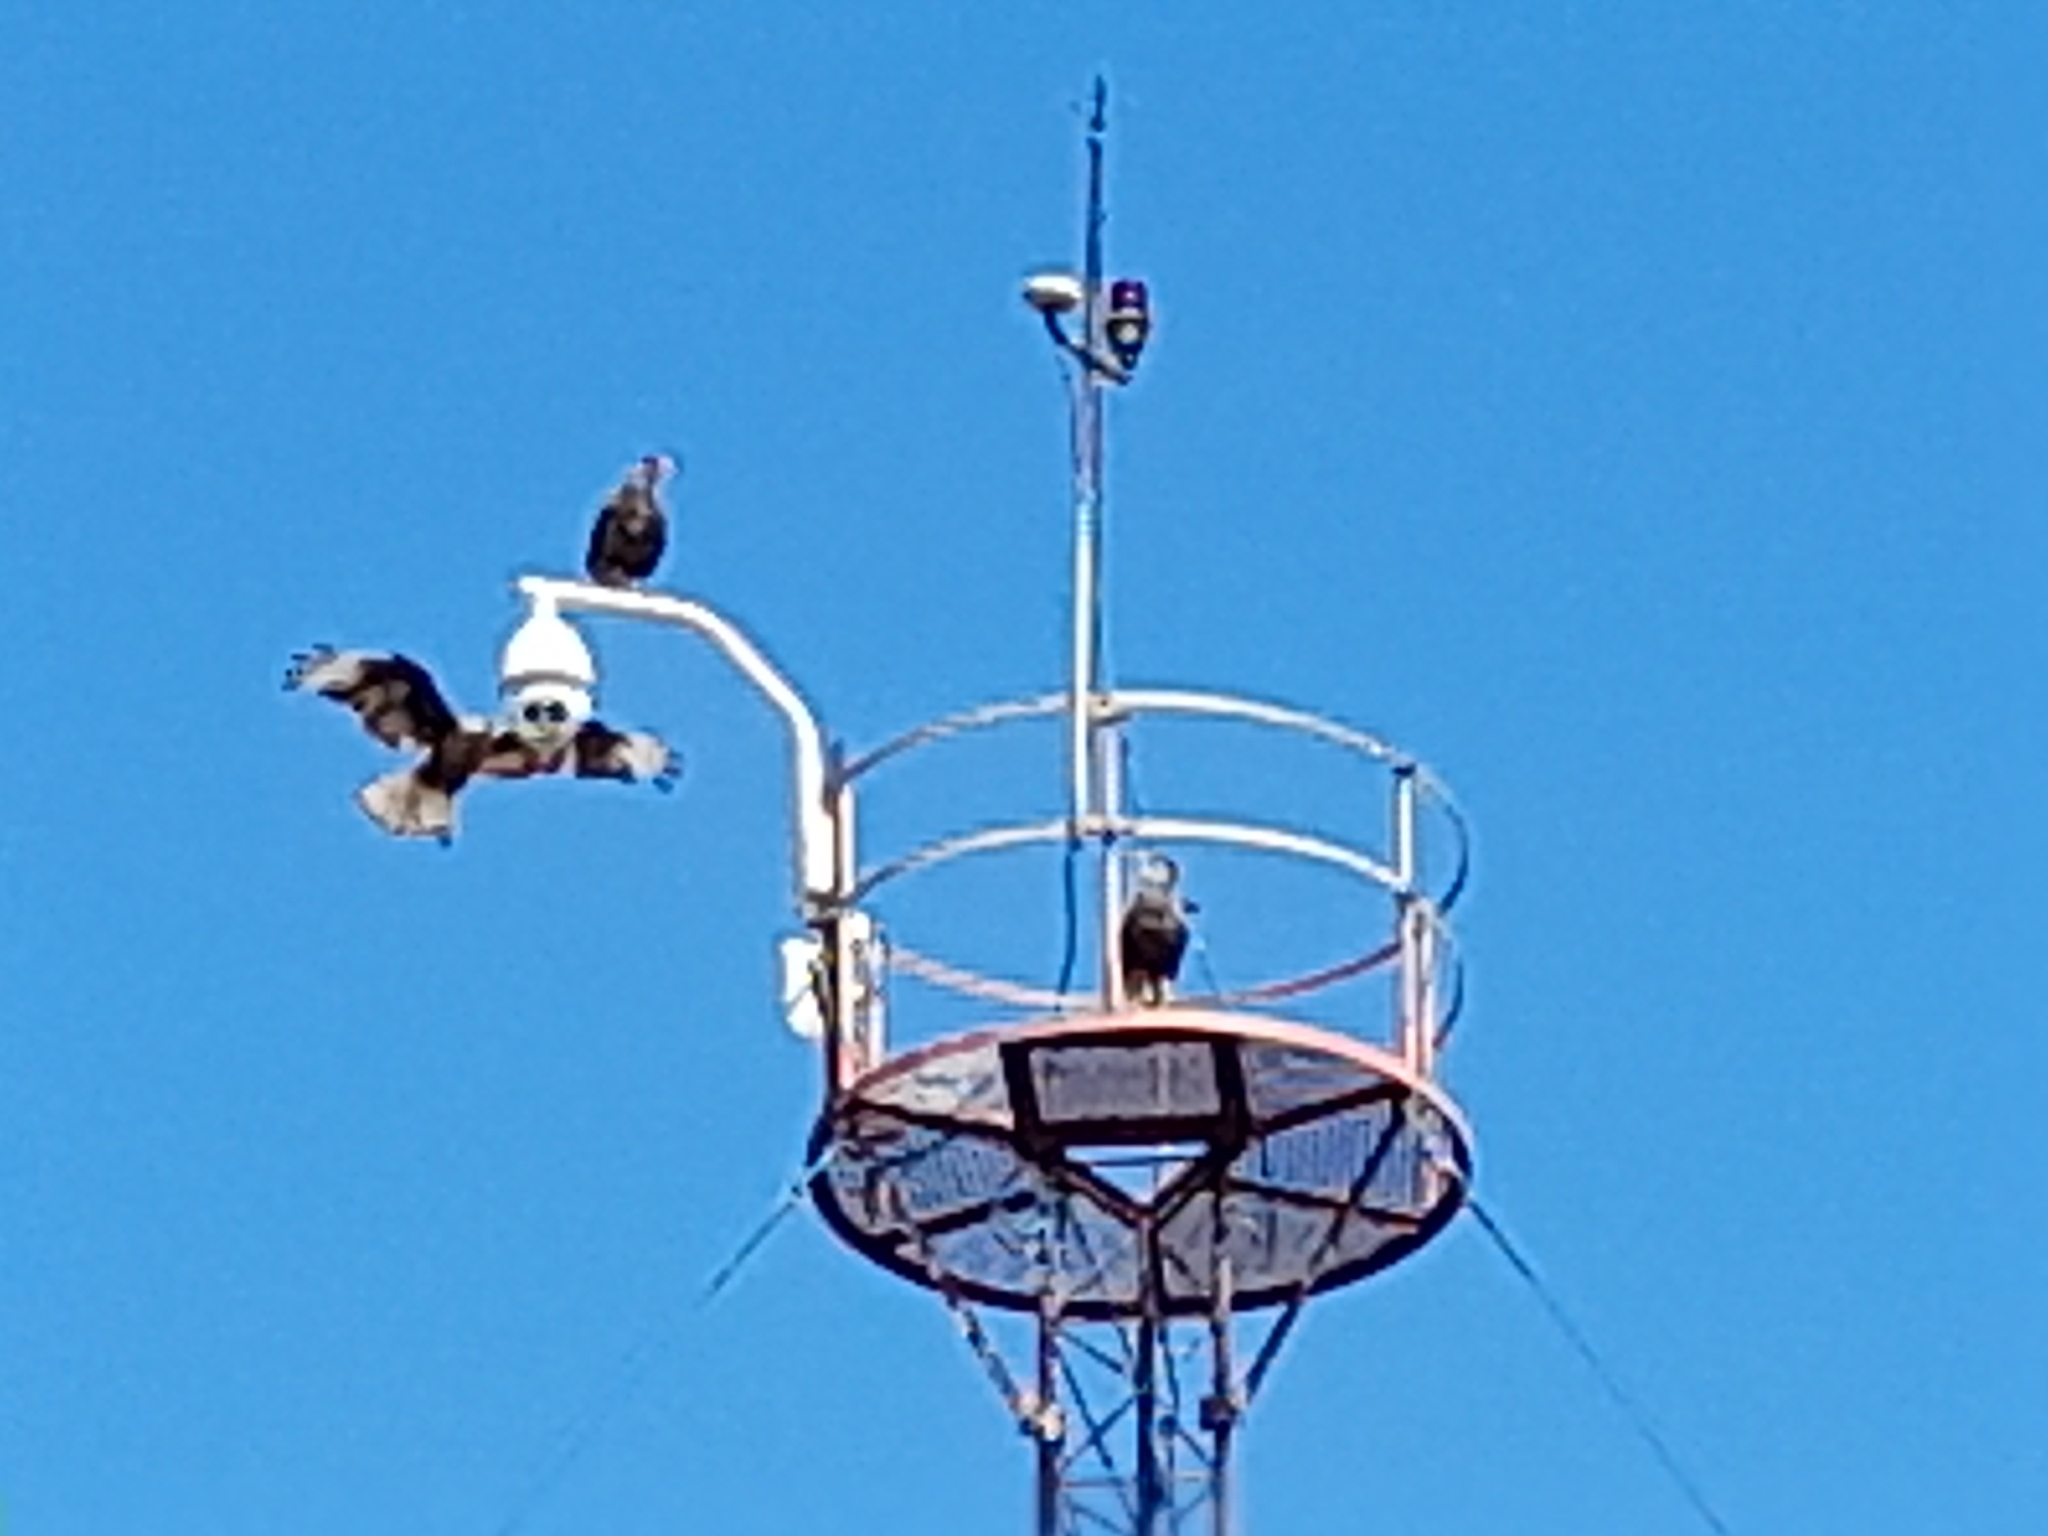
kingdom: Animalia
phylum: Chordata
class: Aves
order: Falconiformes
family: Falconidae
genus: Caracara
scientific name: Caracara plancus
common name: Southern caracara
